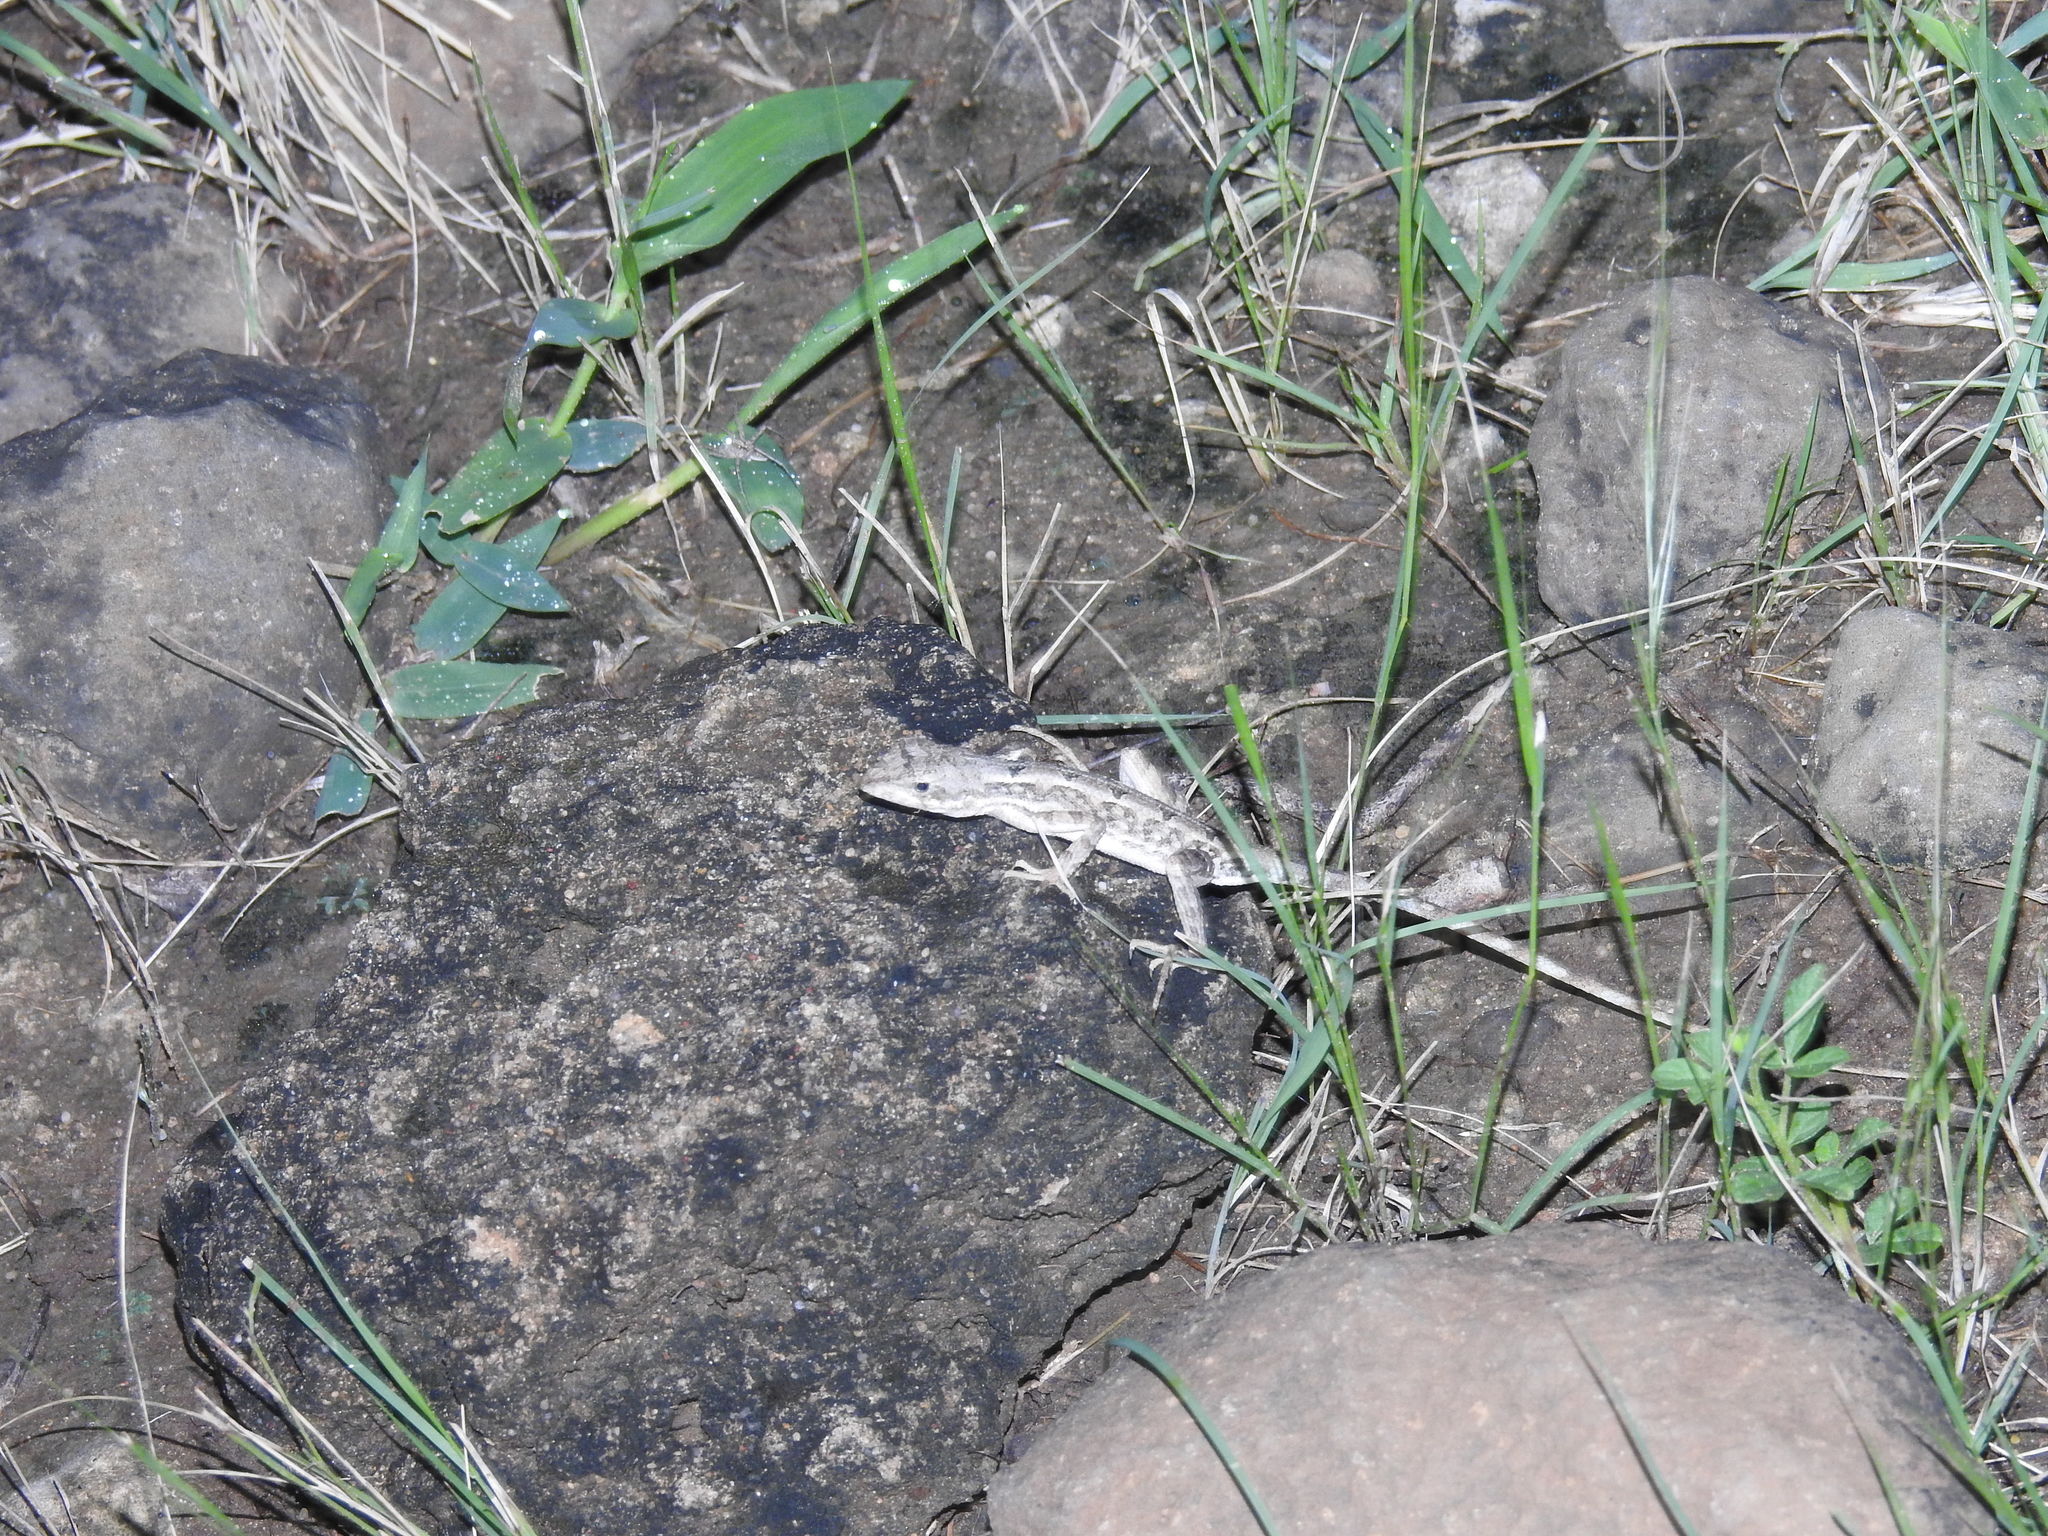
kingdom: Animalia
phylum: Chordata
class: Squamata
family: Agamidae
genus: Sitana
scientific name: Sitana spinaecephalus
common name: Spiny-headed fan-throated lizard
